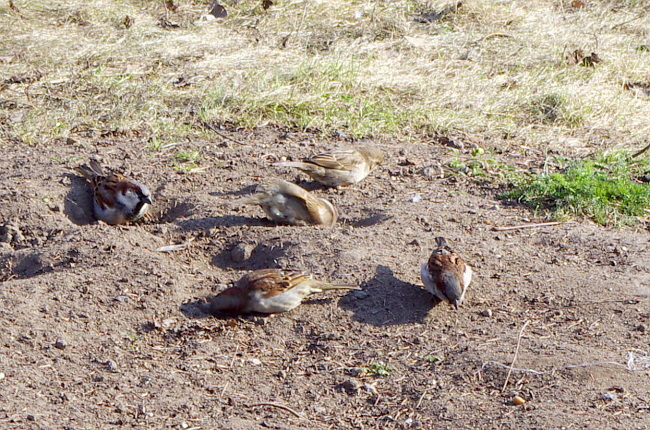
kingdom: Animalia
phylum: Chordata
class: Aves
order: Passeriformes
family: Passeridae
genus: Passer
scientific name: Passer domesticus
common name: House sparrow
